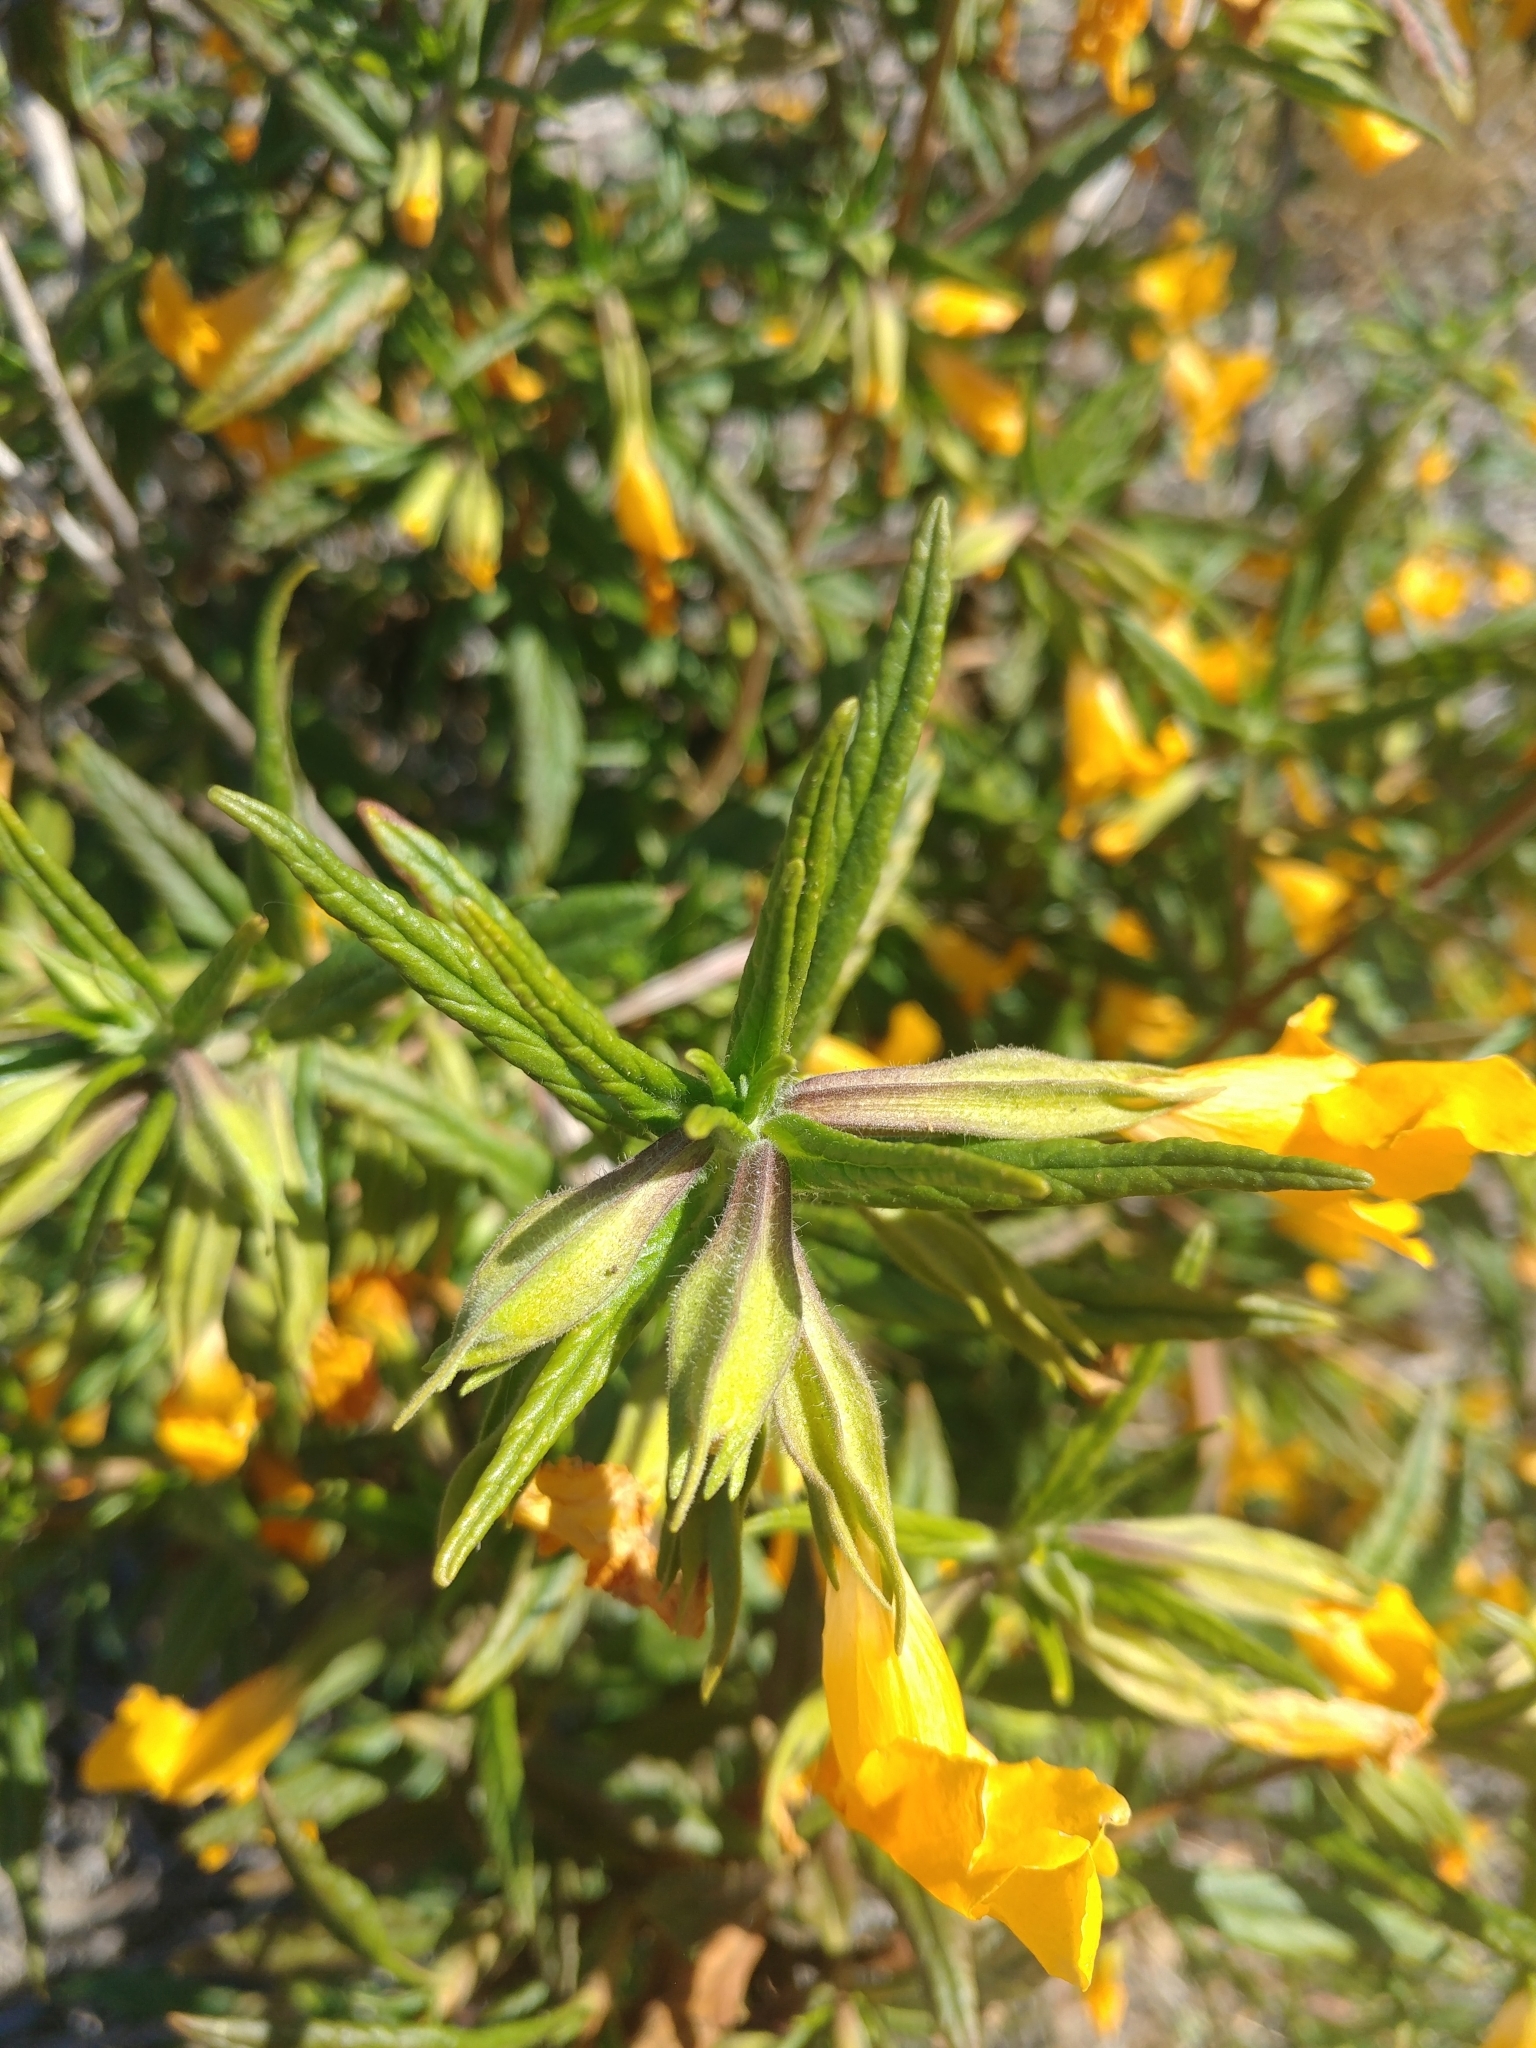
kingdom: Plantae
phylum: Tracheophyta
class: Magnoliopsida
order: Lamiales
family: Phrymaceae
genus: Diplacus
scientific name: Diplacus longiflorus
